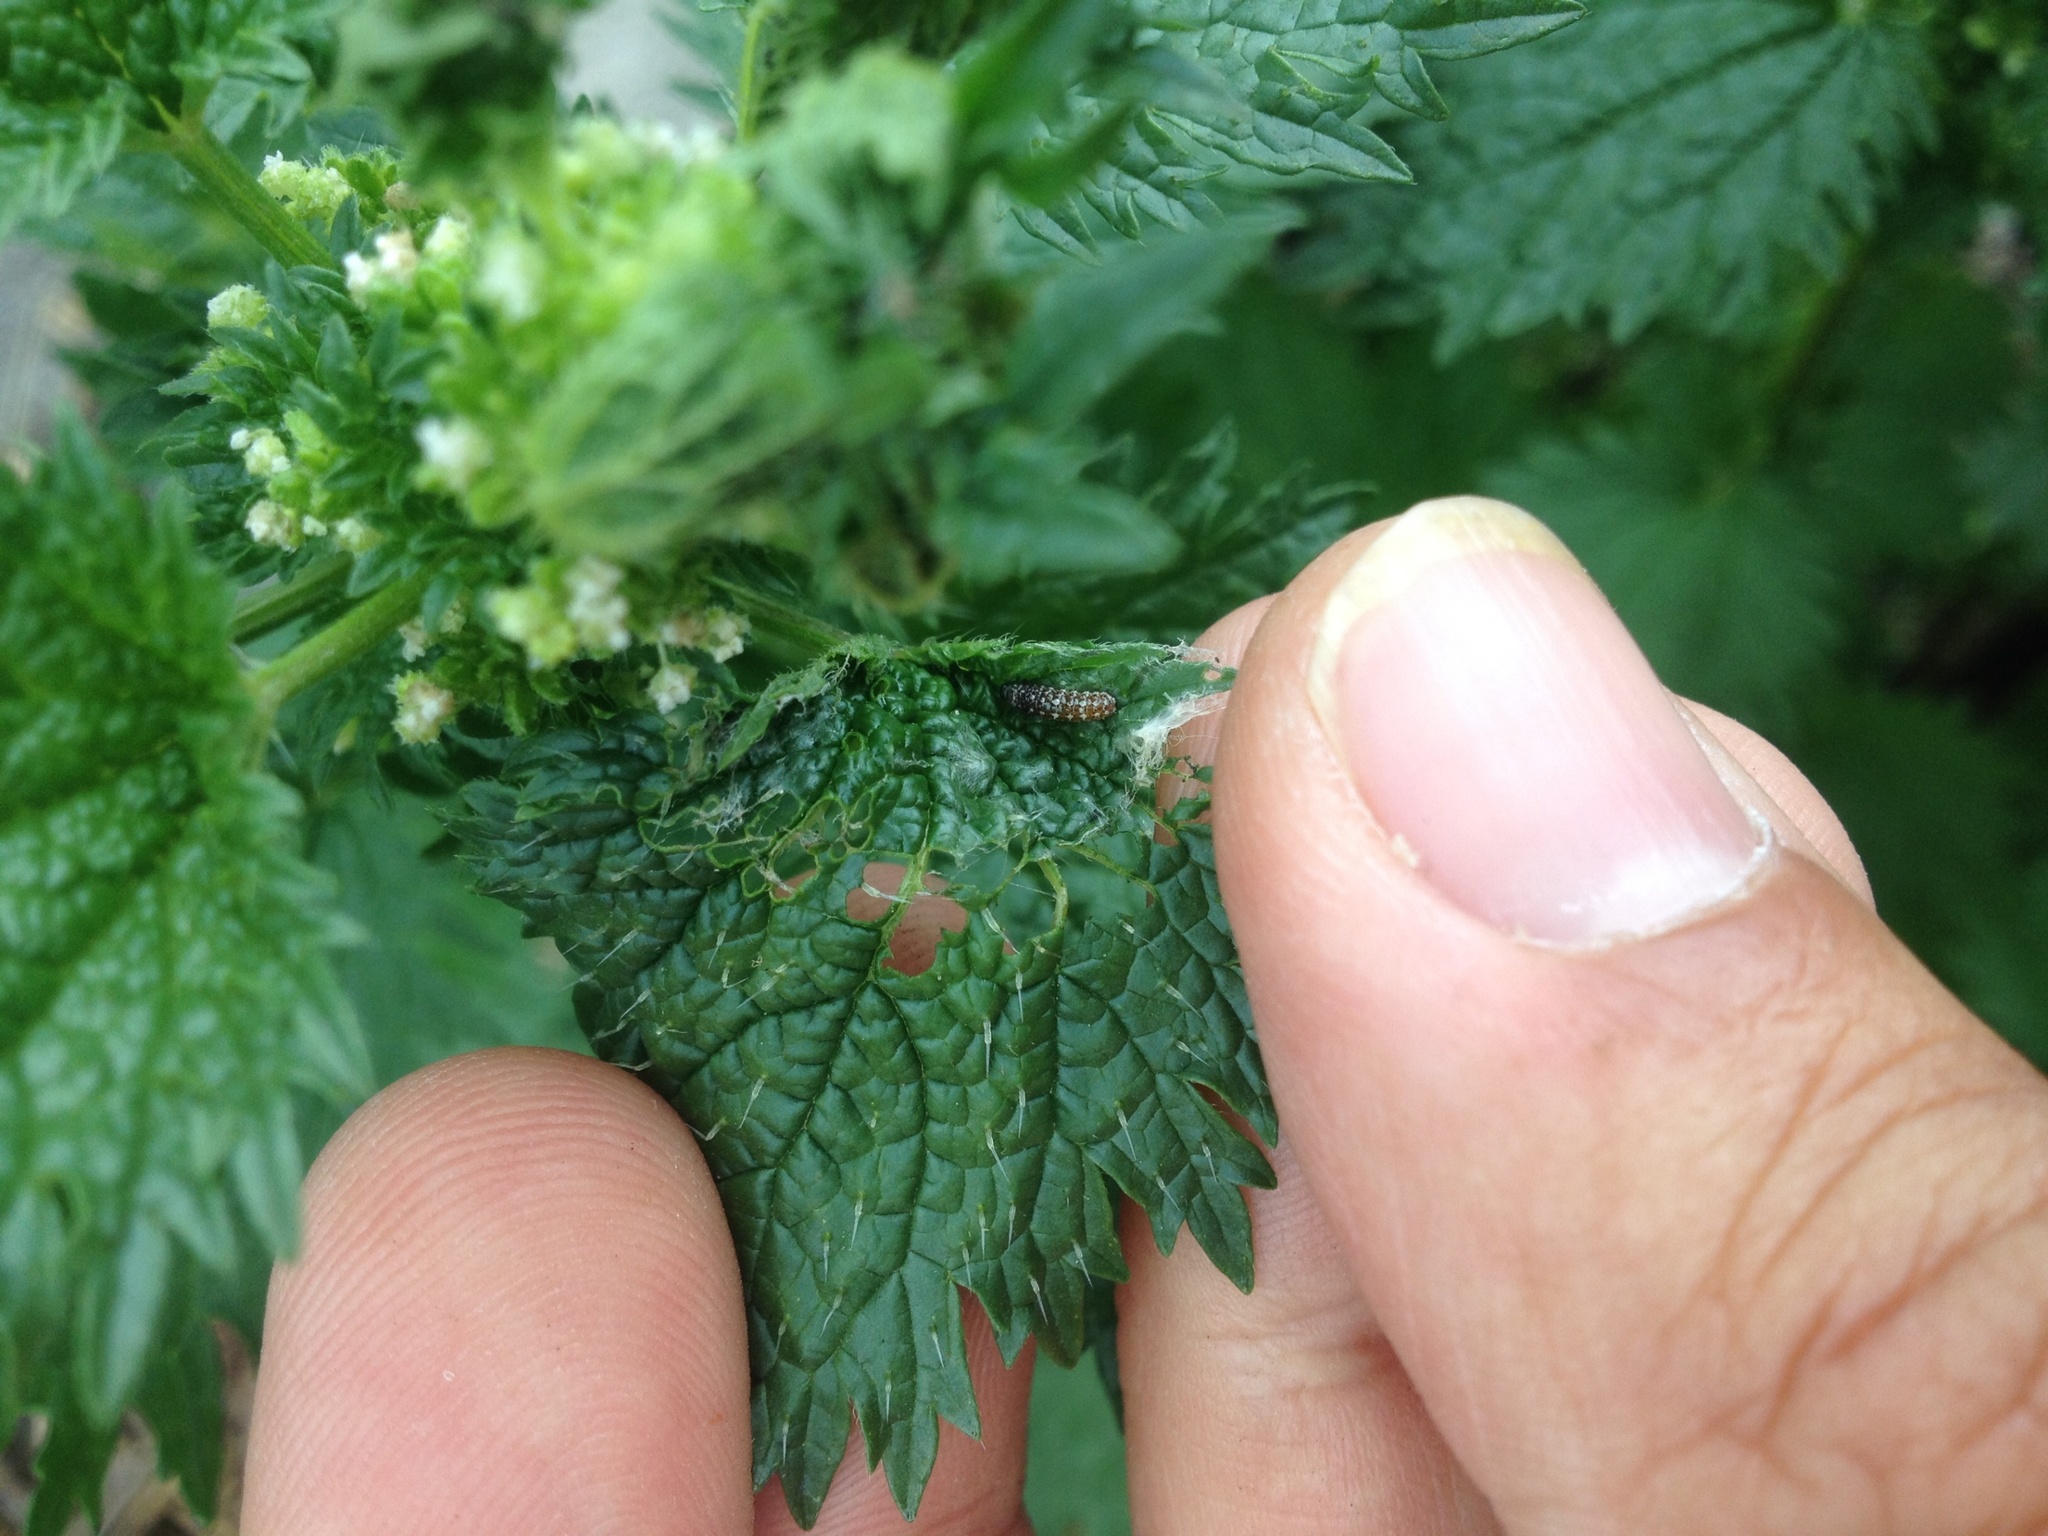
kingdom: Animalia
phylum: Arthropoda
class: Insecta
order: Lepidoptera
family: Nymphalidae
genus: Vanessa
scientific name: Vanessa itea
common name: Yellow admiral
